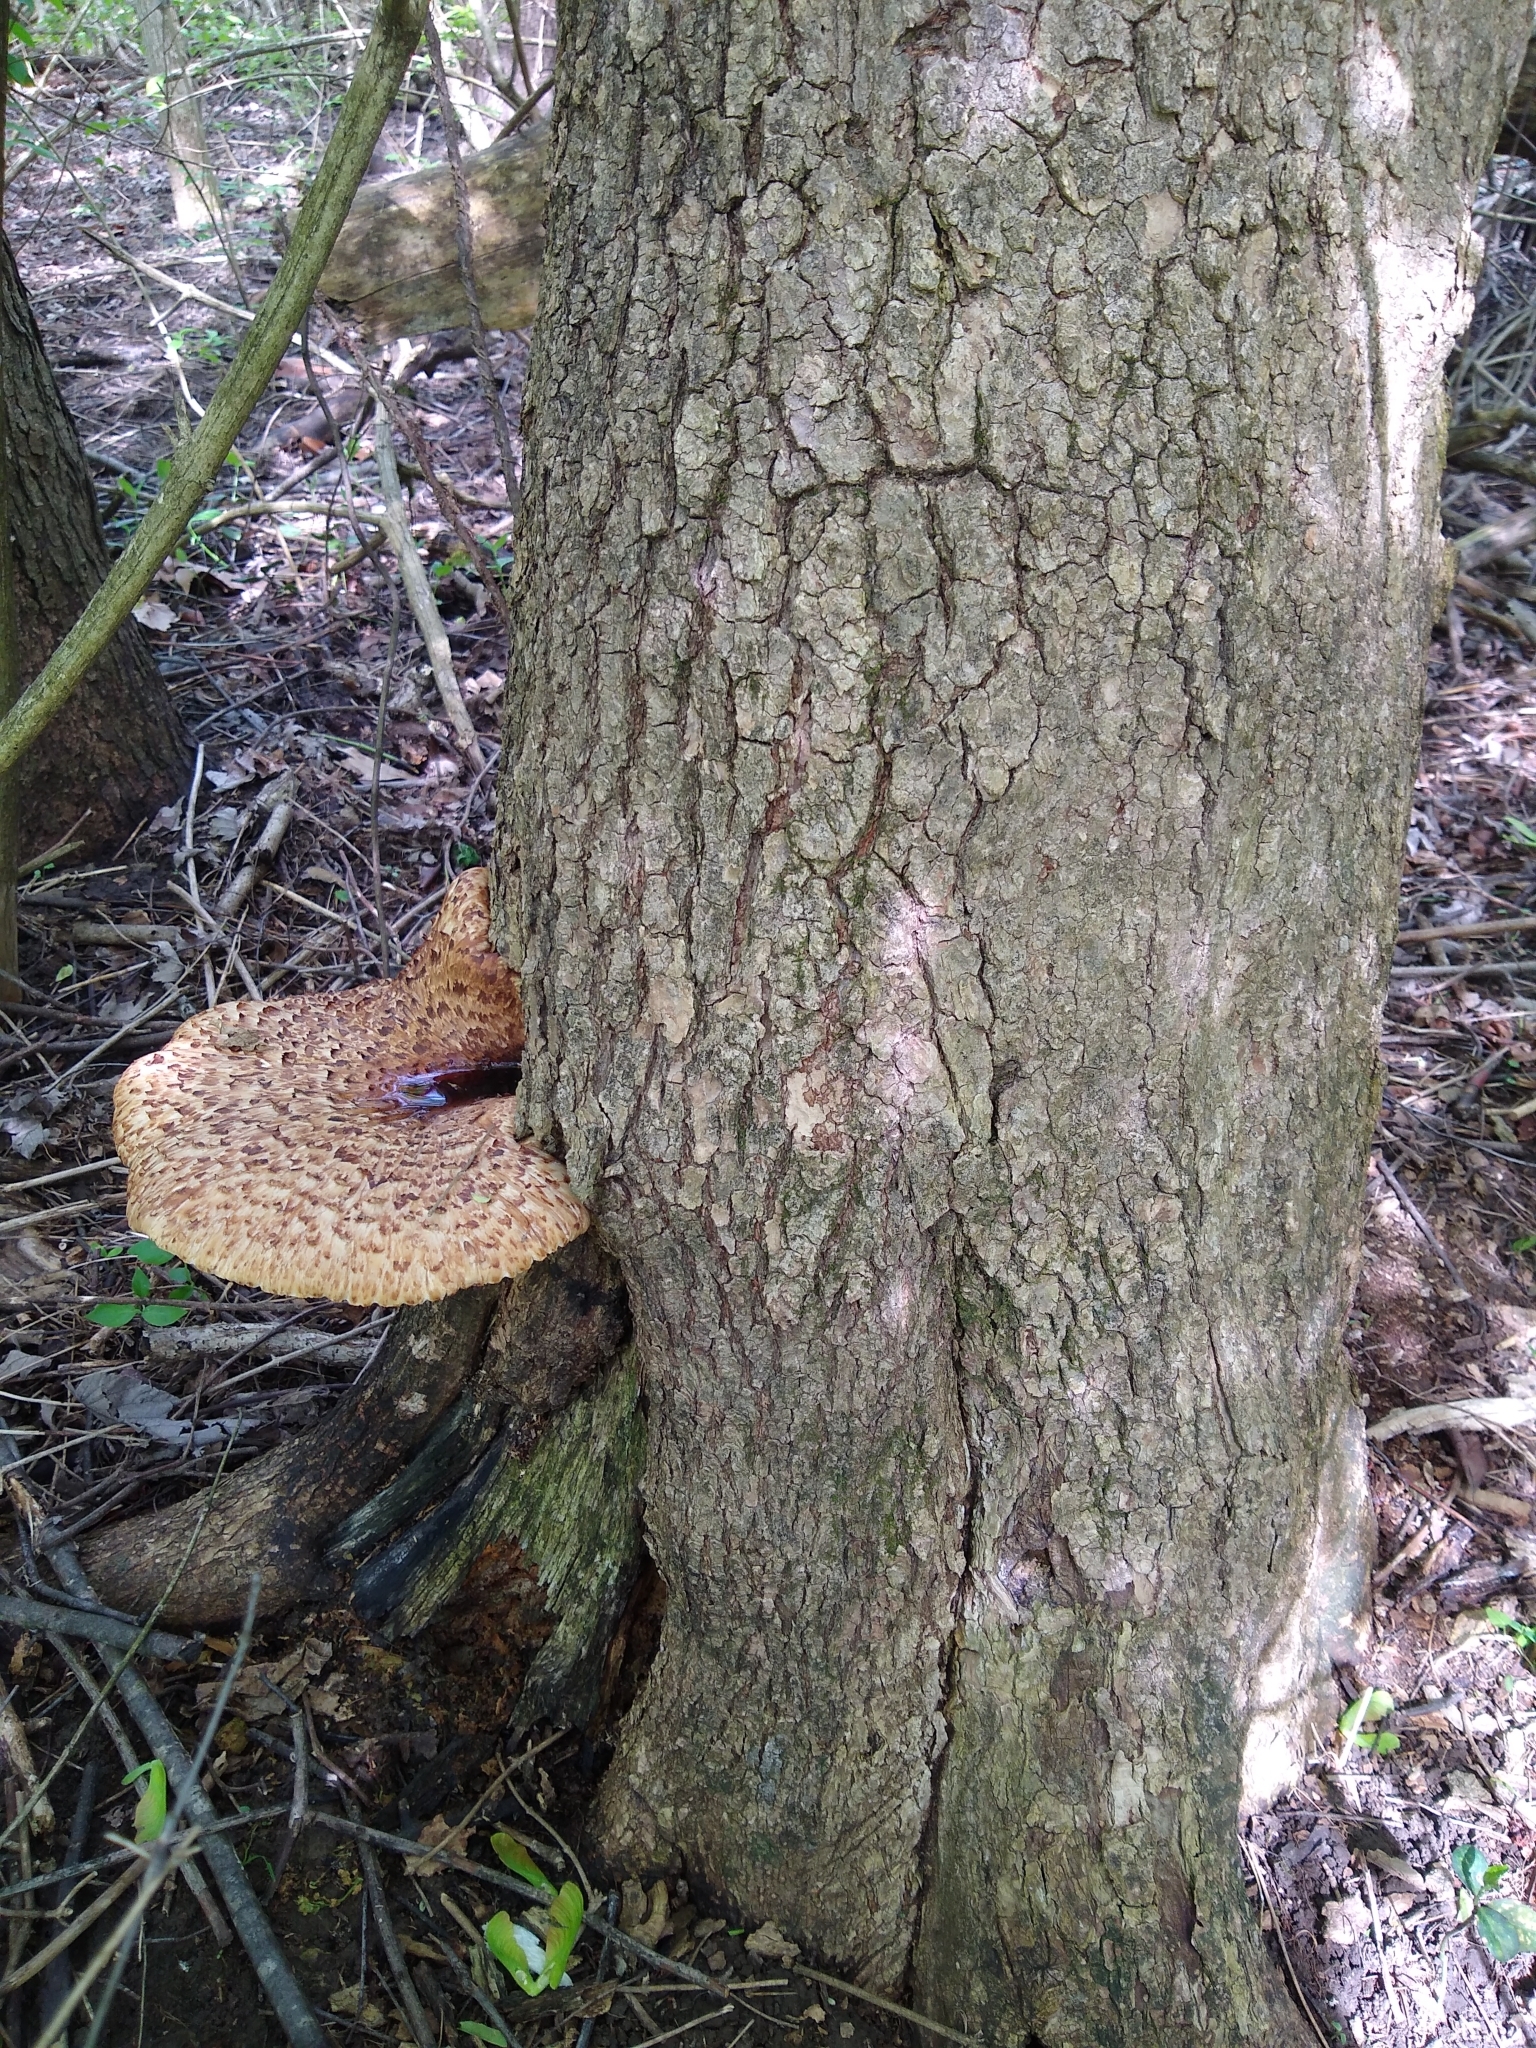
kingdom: Fungi
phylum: Basidiomycota
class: Agaricomycetes
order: Polyporales
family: Polyporaceae
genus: Cerioporus
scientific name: Cerioporus squamosus
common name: Dryad's saddle
